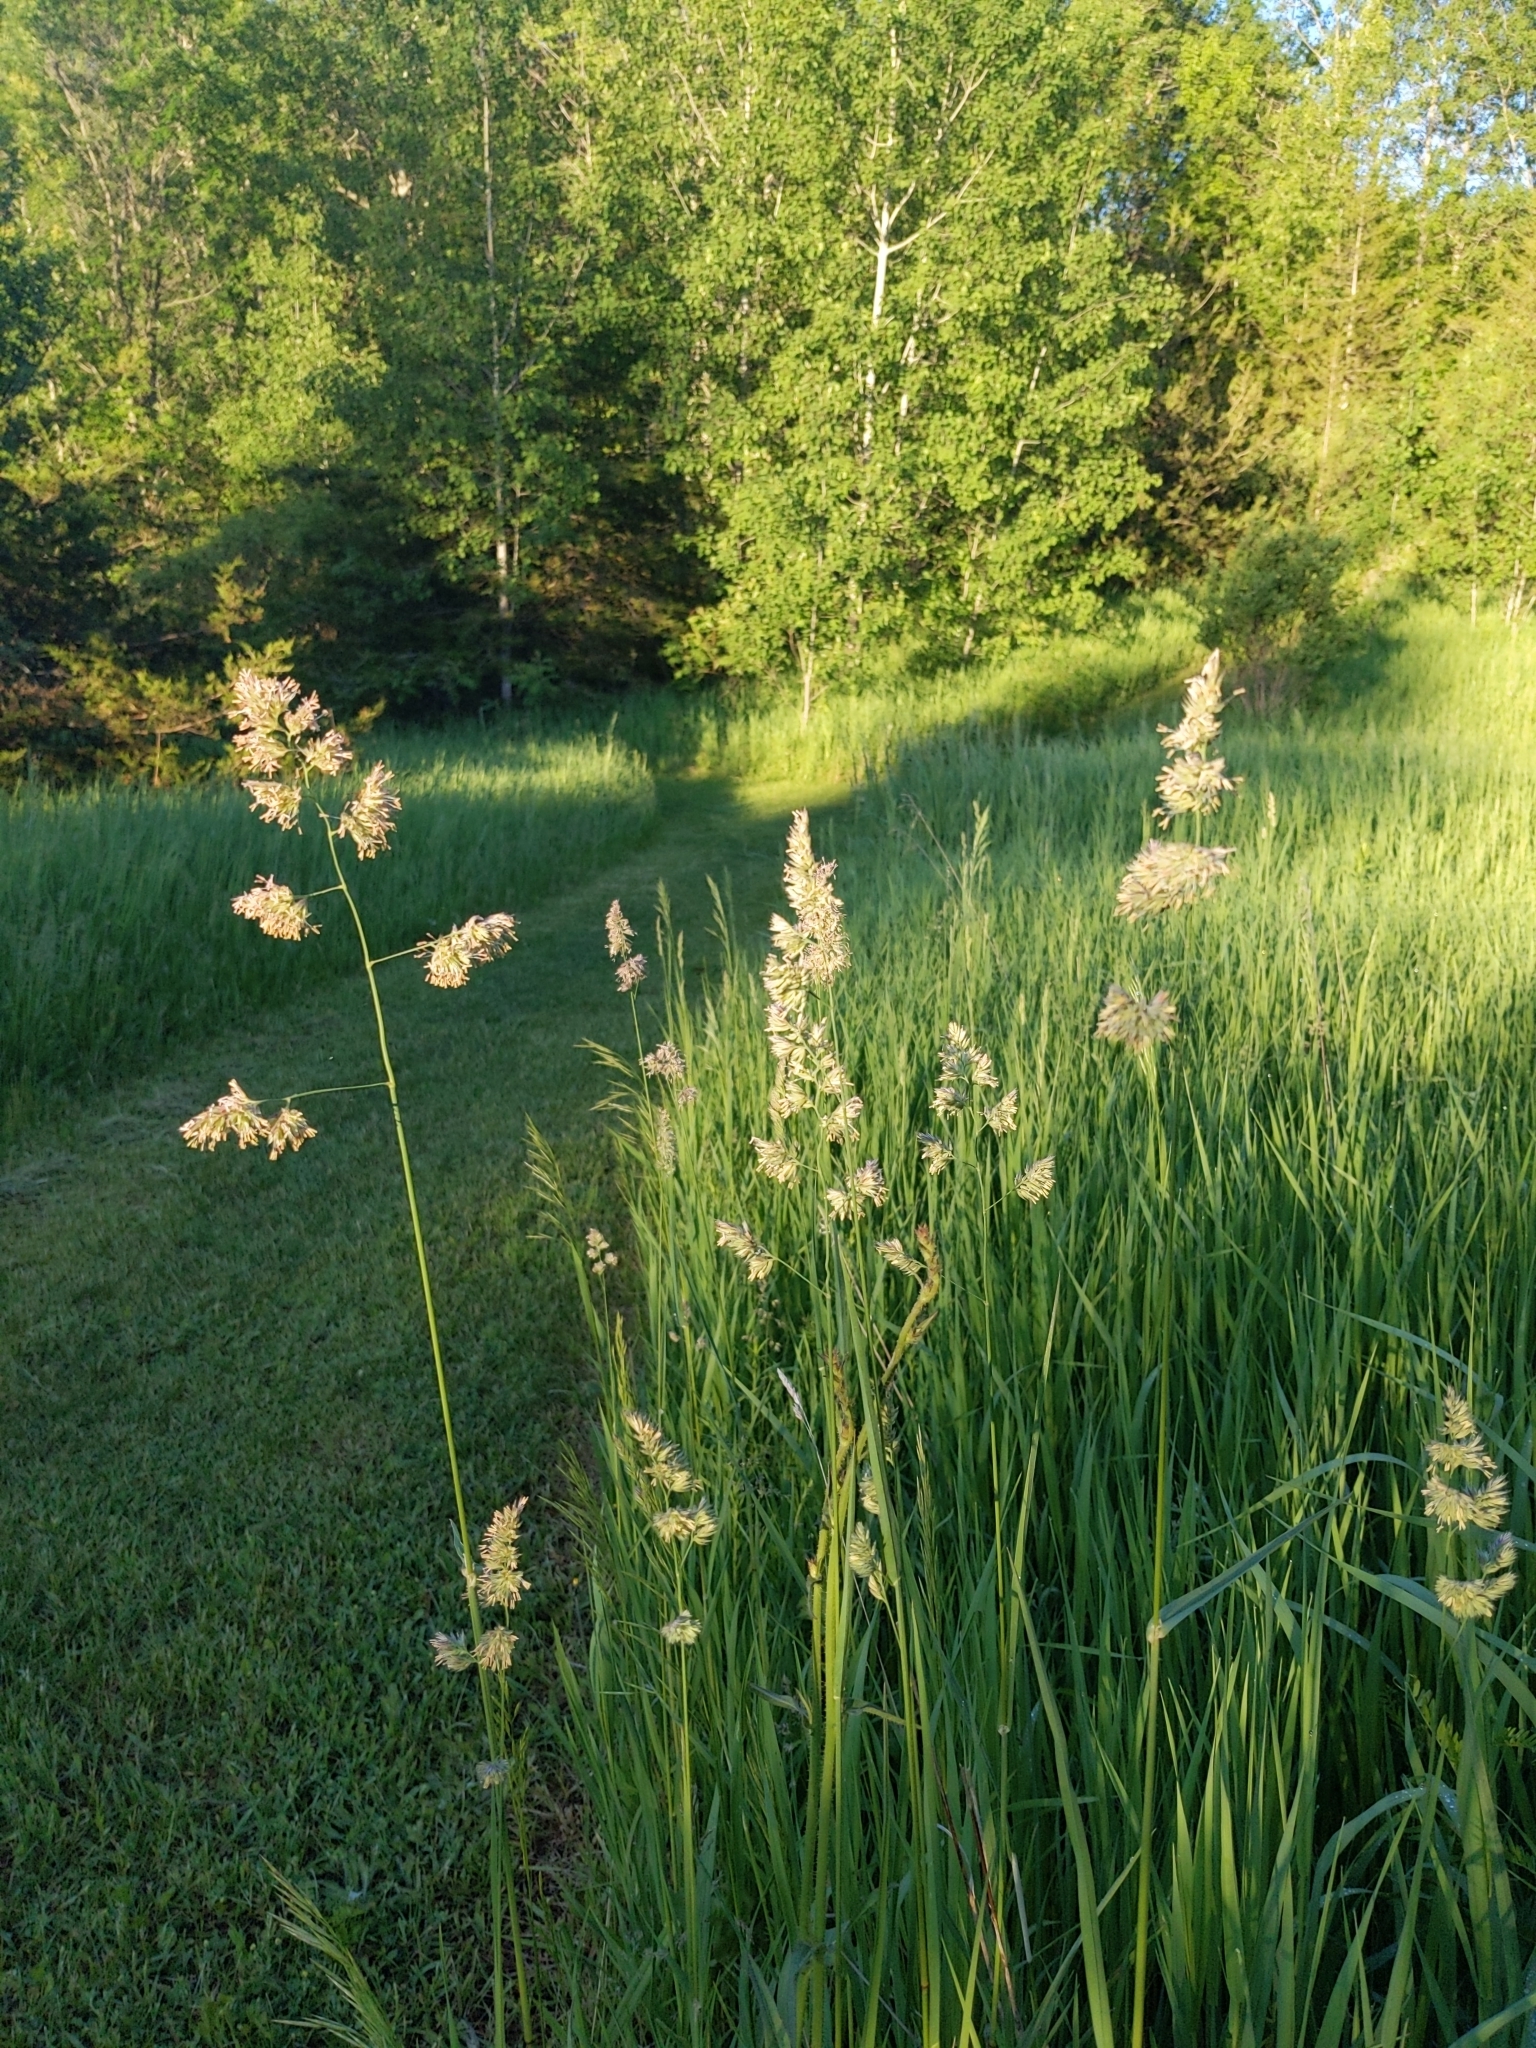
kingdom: Plantae
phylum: Tracheophyta
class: Liliopsida
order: Poales
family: Poaceae
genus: Dactylis
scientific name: Dactylis glomerata
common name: Orchardgrass
